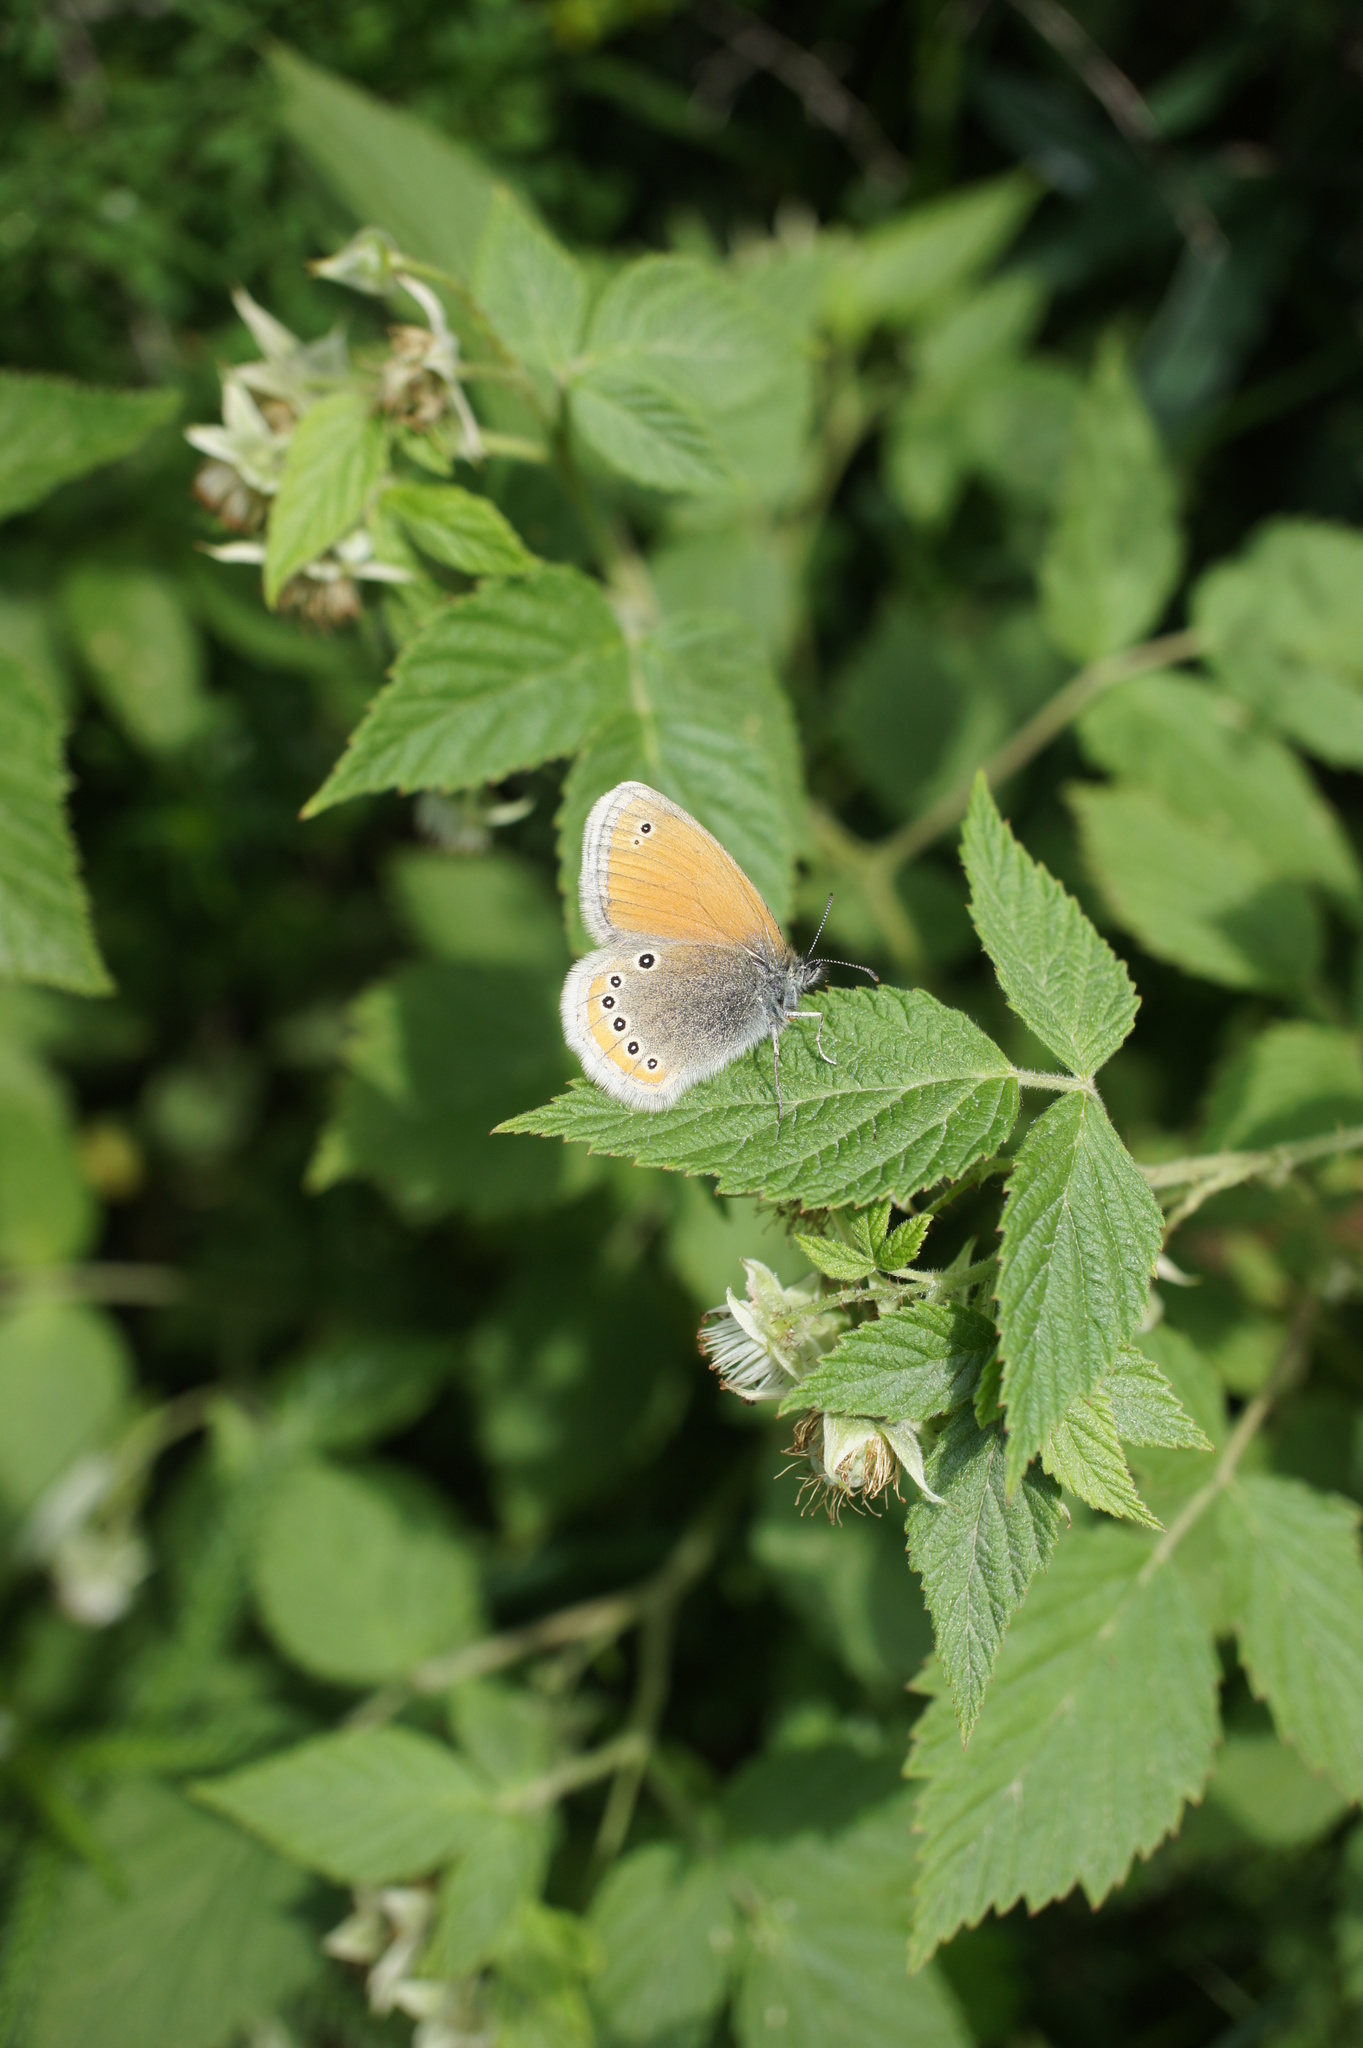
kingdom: Animalia
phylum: Arthropoda
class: Insecta
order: Lepidoptera
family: Nymphalidae
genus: Coenonympha
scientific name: Coenonympha leander
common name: Russian heath
